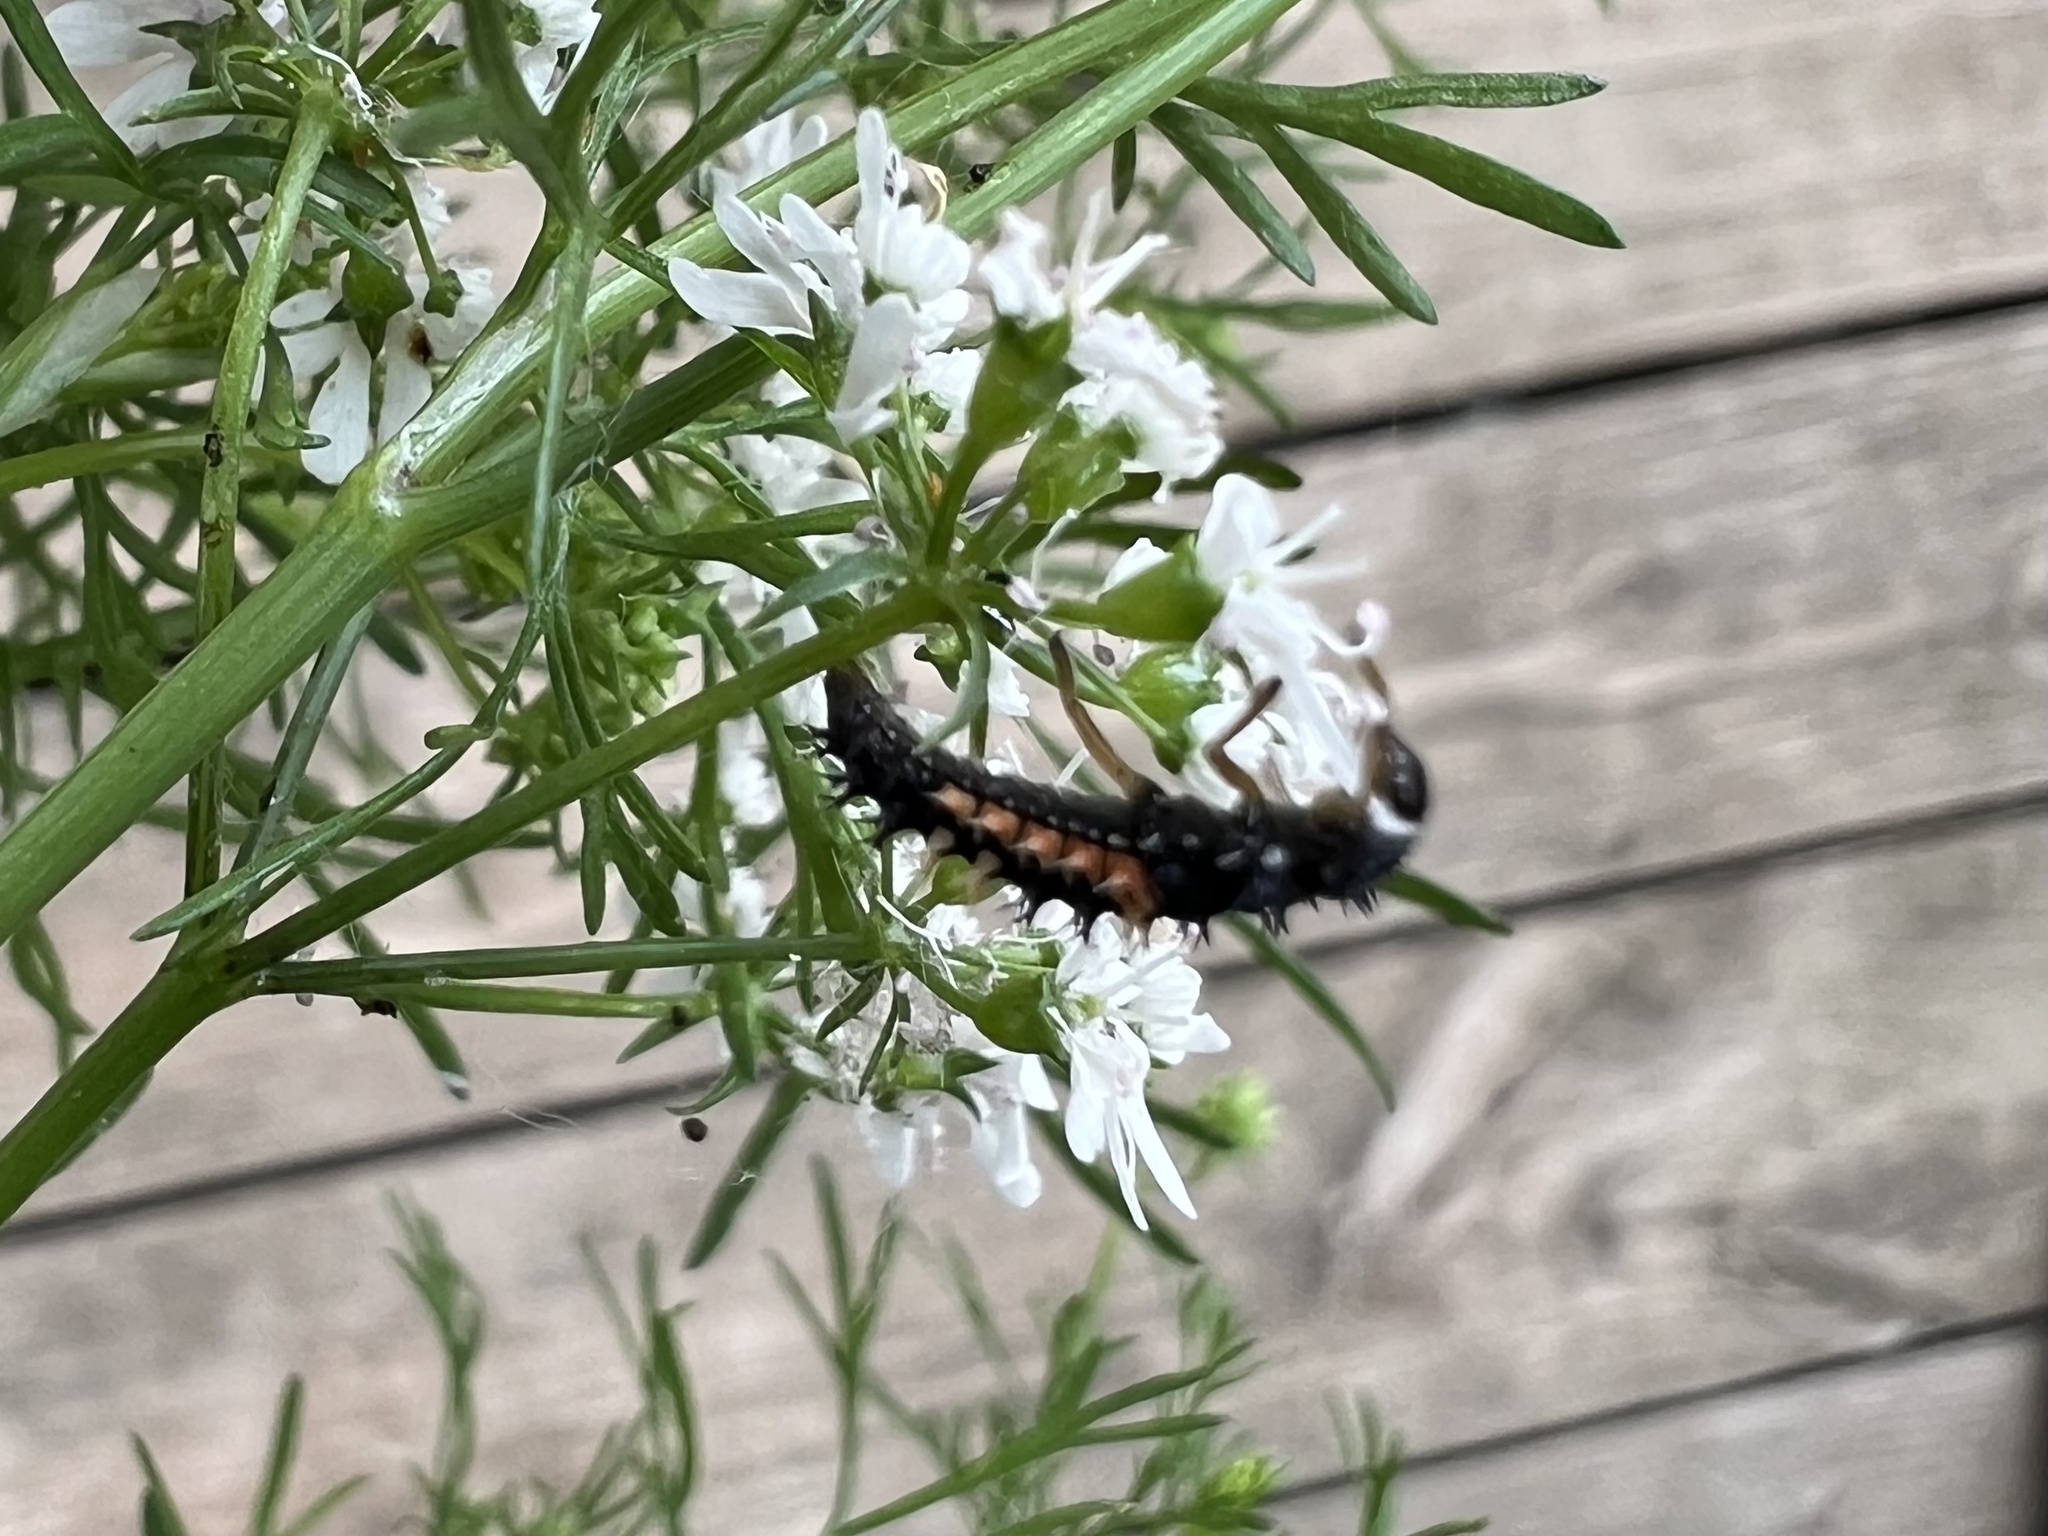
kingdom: Animalia
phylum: Arthropoda
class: Insecta
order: Coleoptera
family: Coccinellidae
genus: Harmonia
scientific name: Harmonia axyridis
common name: Harlequin ladybird
